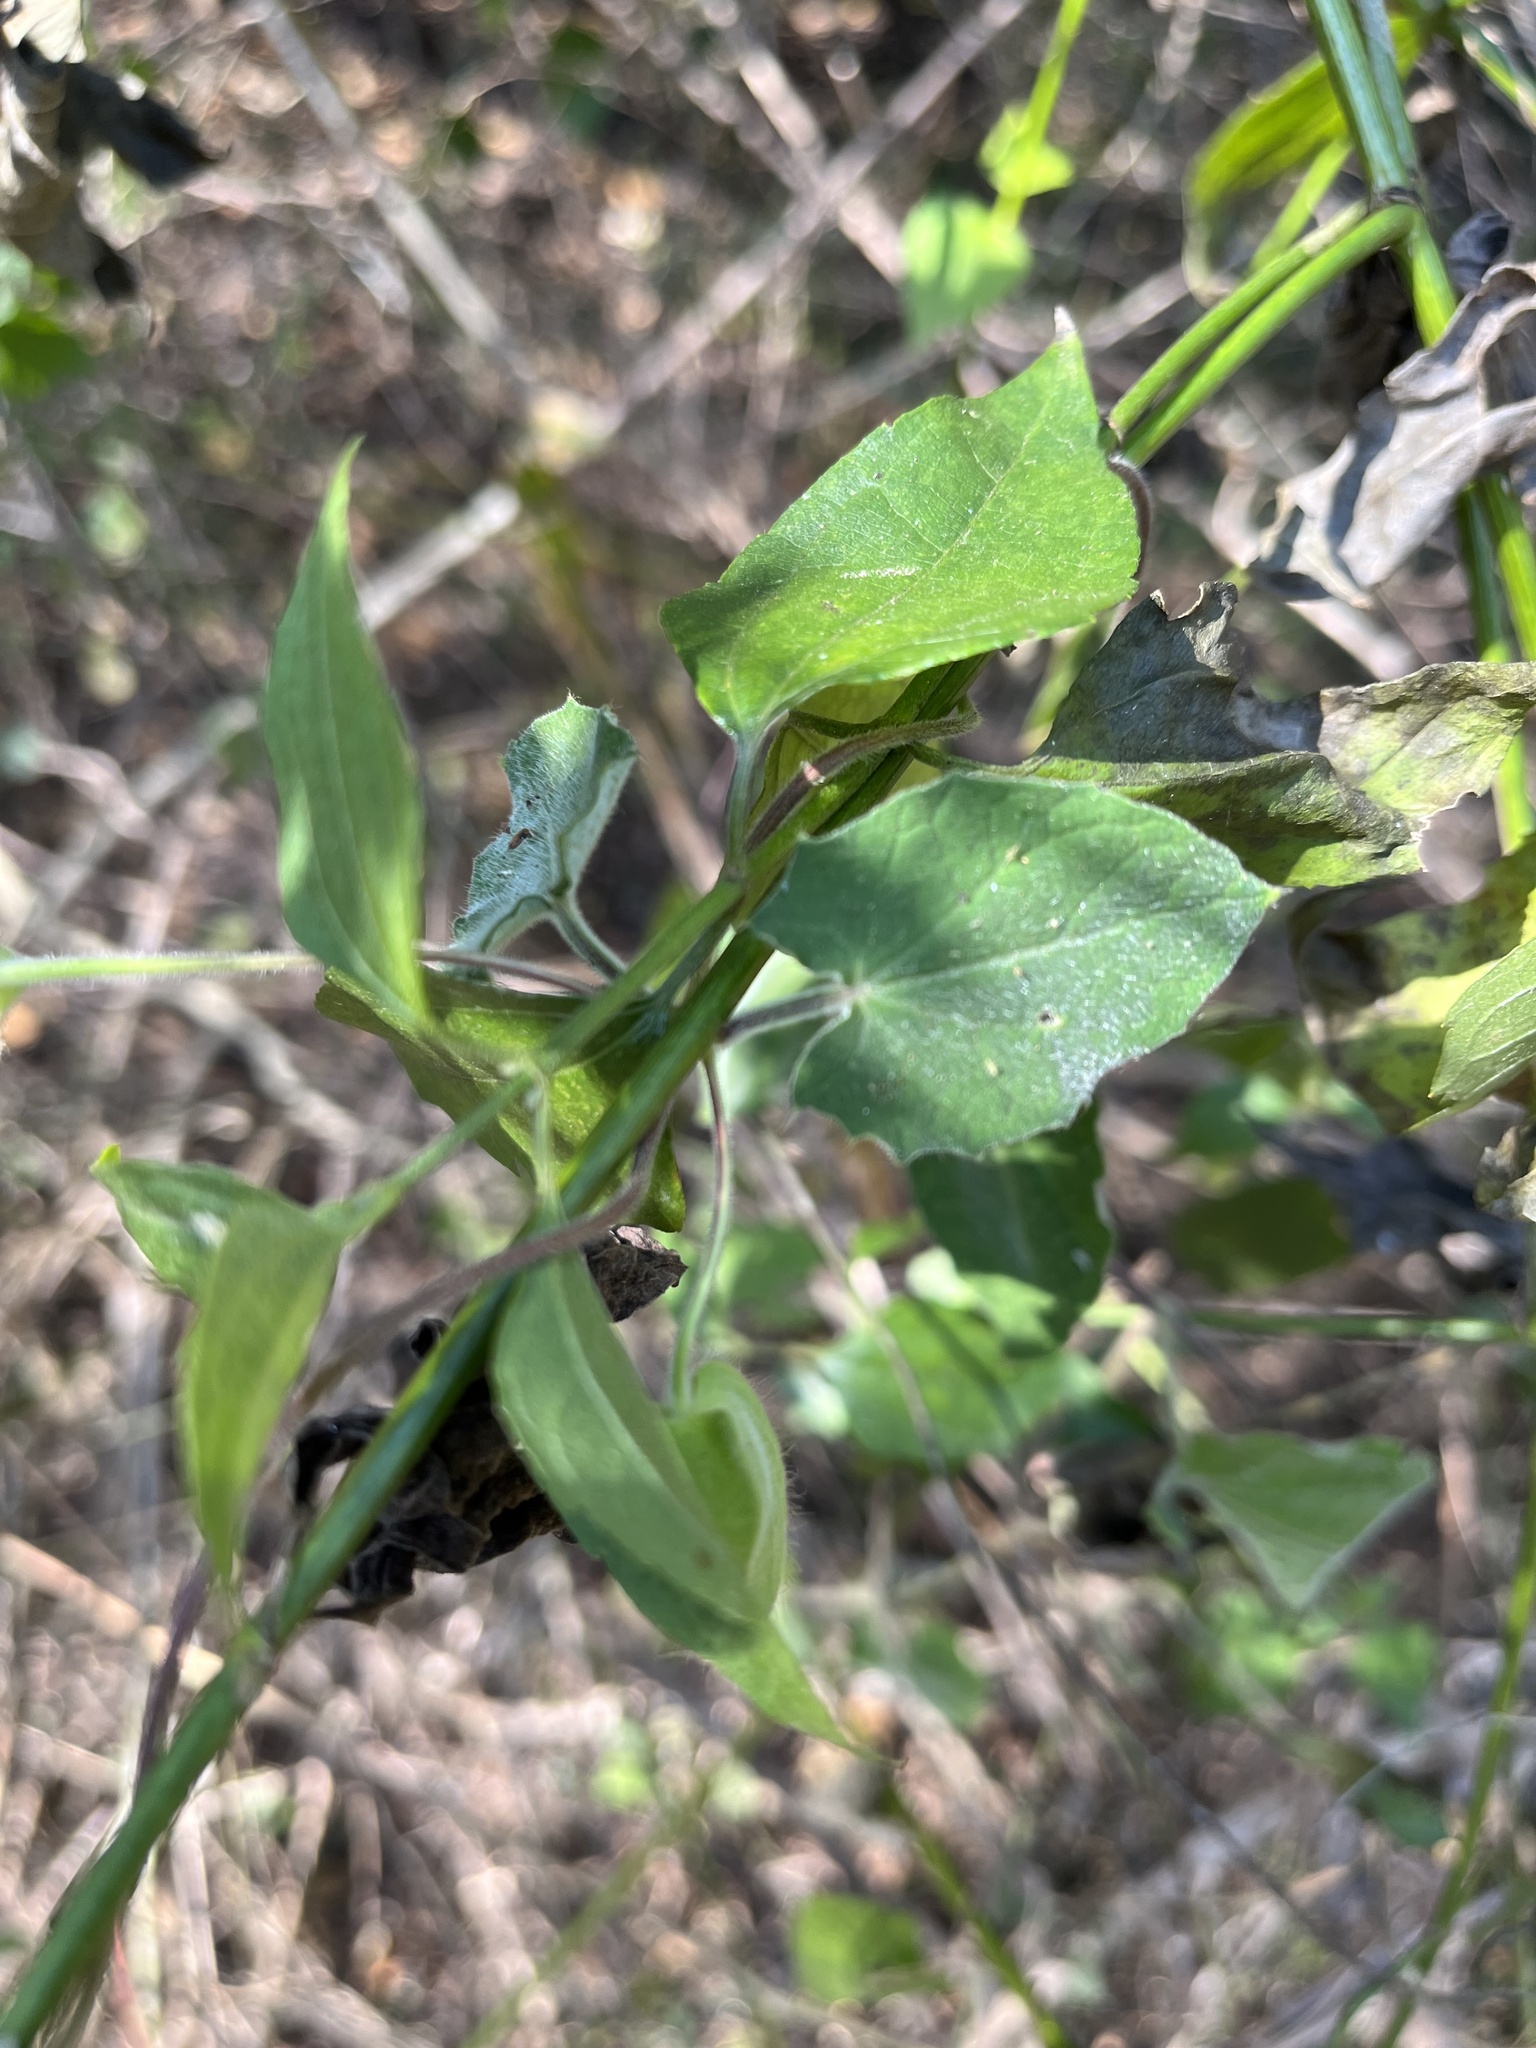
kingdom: Plantae
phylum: Tracheophyta
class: Magnoliopsida
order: Lamiales
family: Acanthaceae
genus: Thunbergia
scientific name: Thunbergia alata
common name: Blackeyed susan vine
